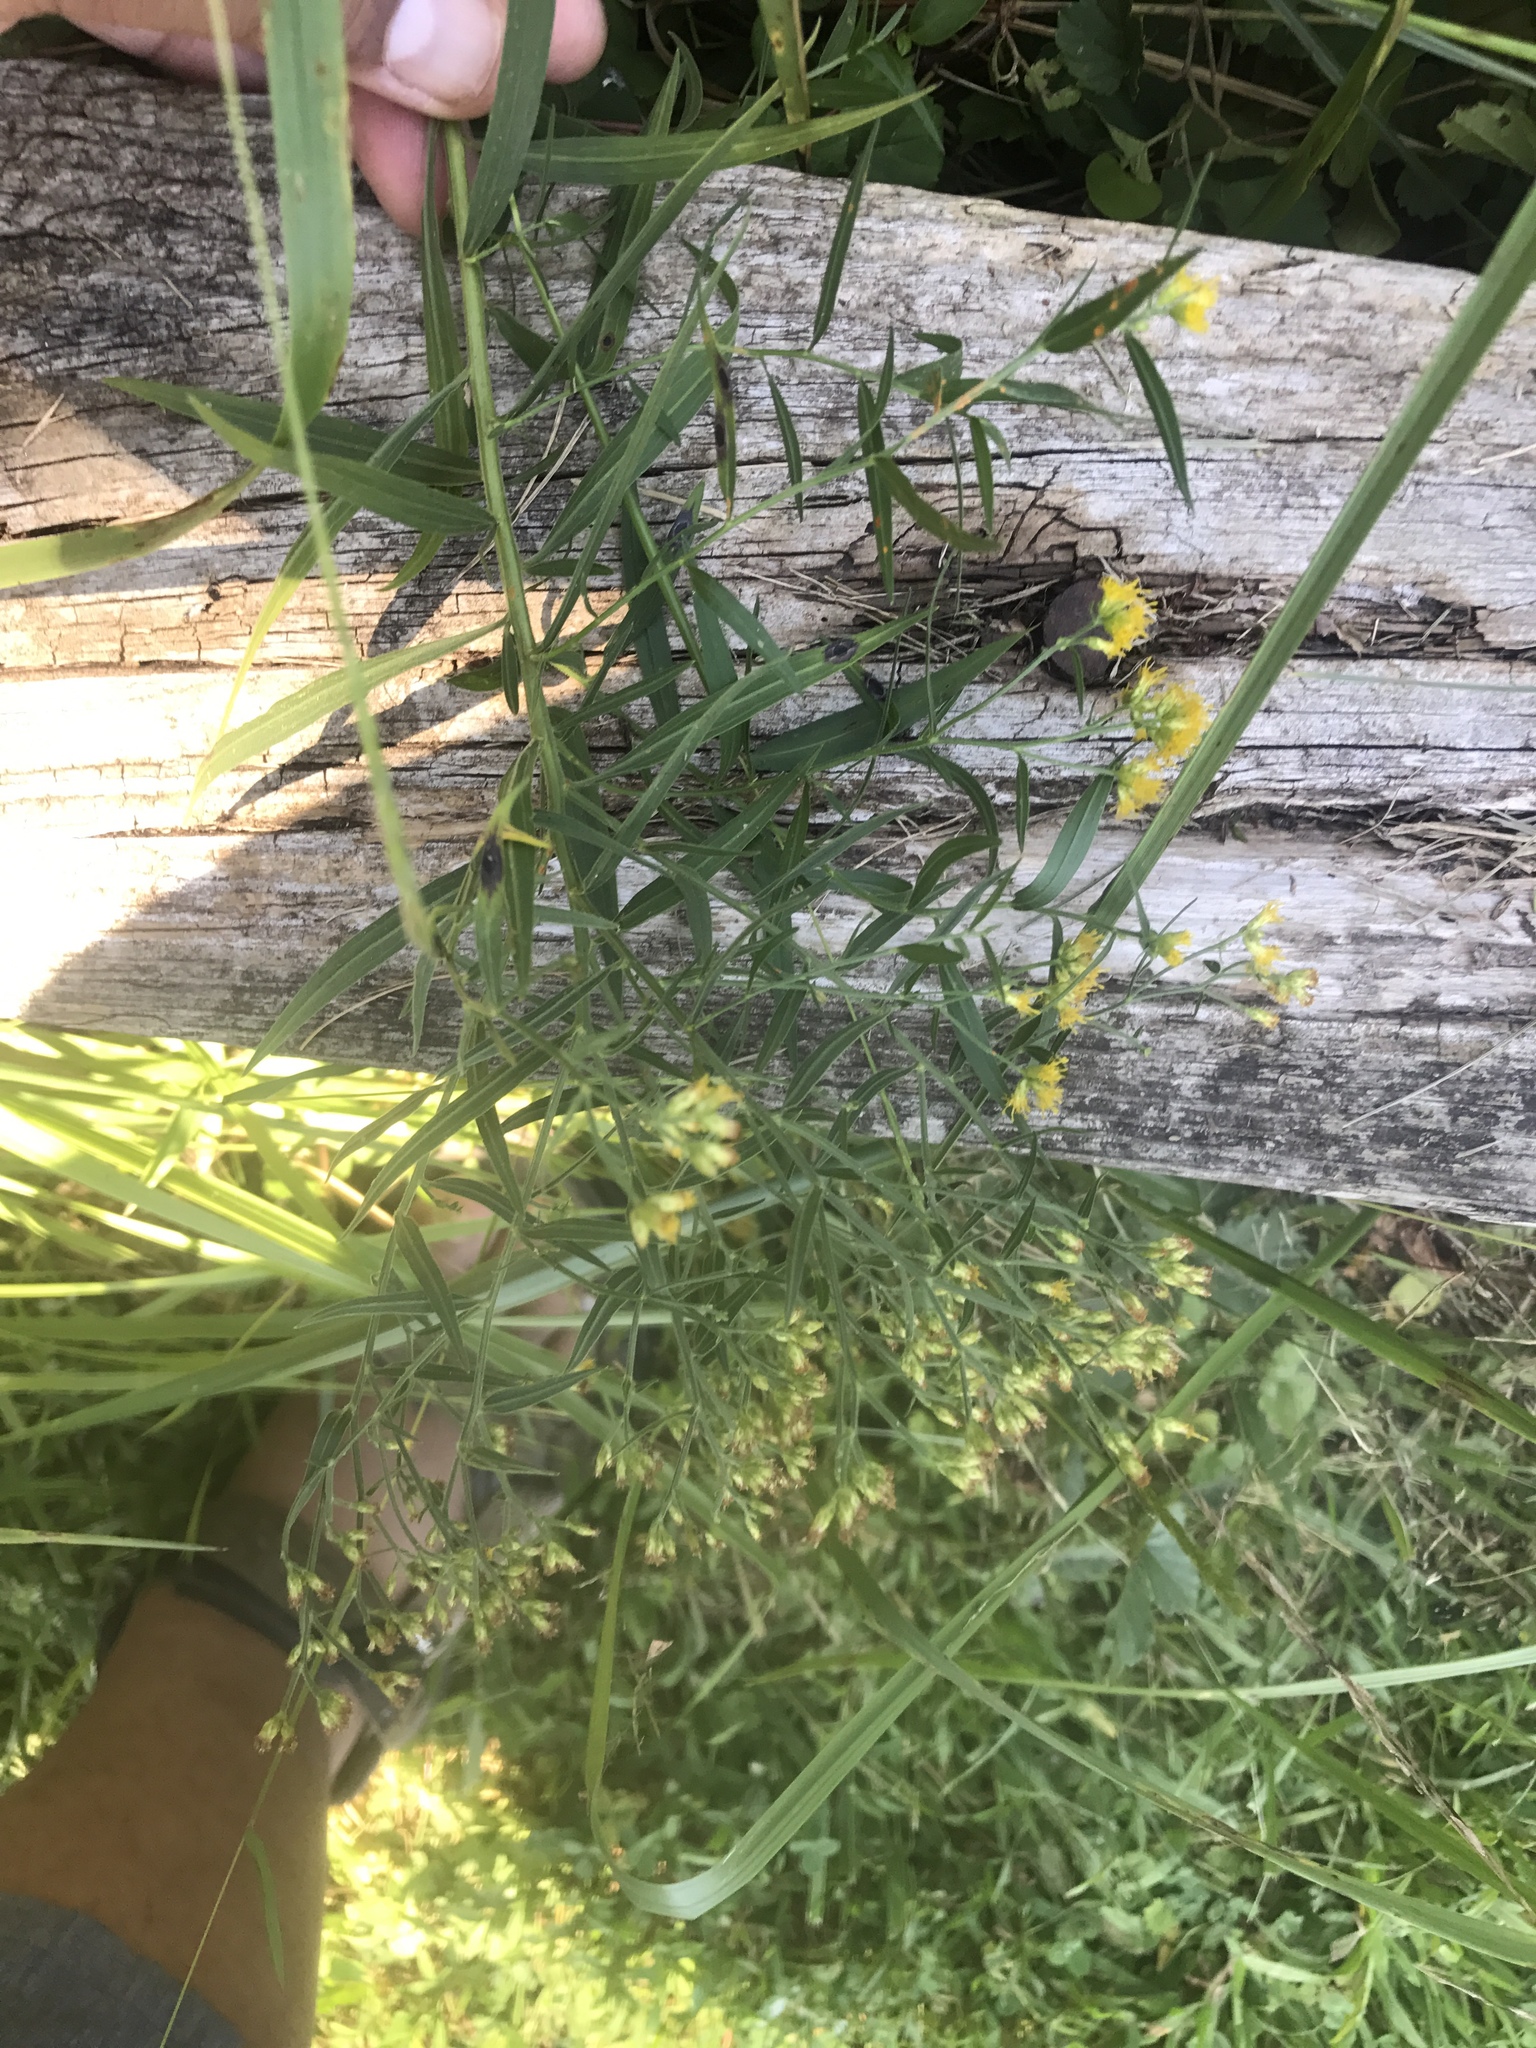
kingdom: Plantae
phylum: Tracheophyta
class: Magnoliopsida
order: Asterales
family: Asteraceae
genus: Euthamia
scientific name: Euthamia graminifolia
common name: Common goldentop
